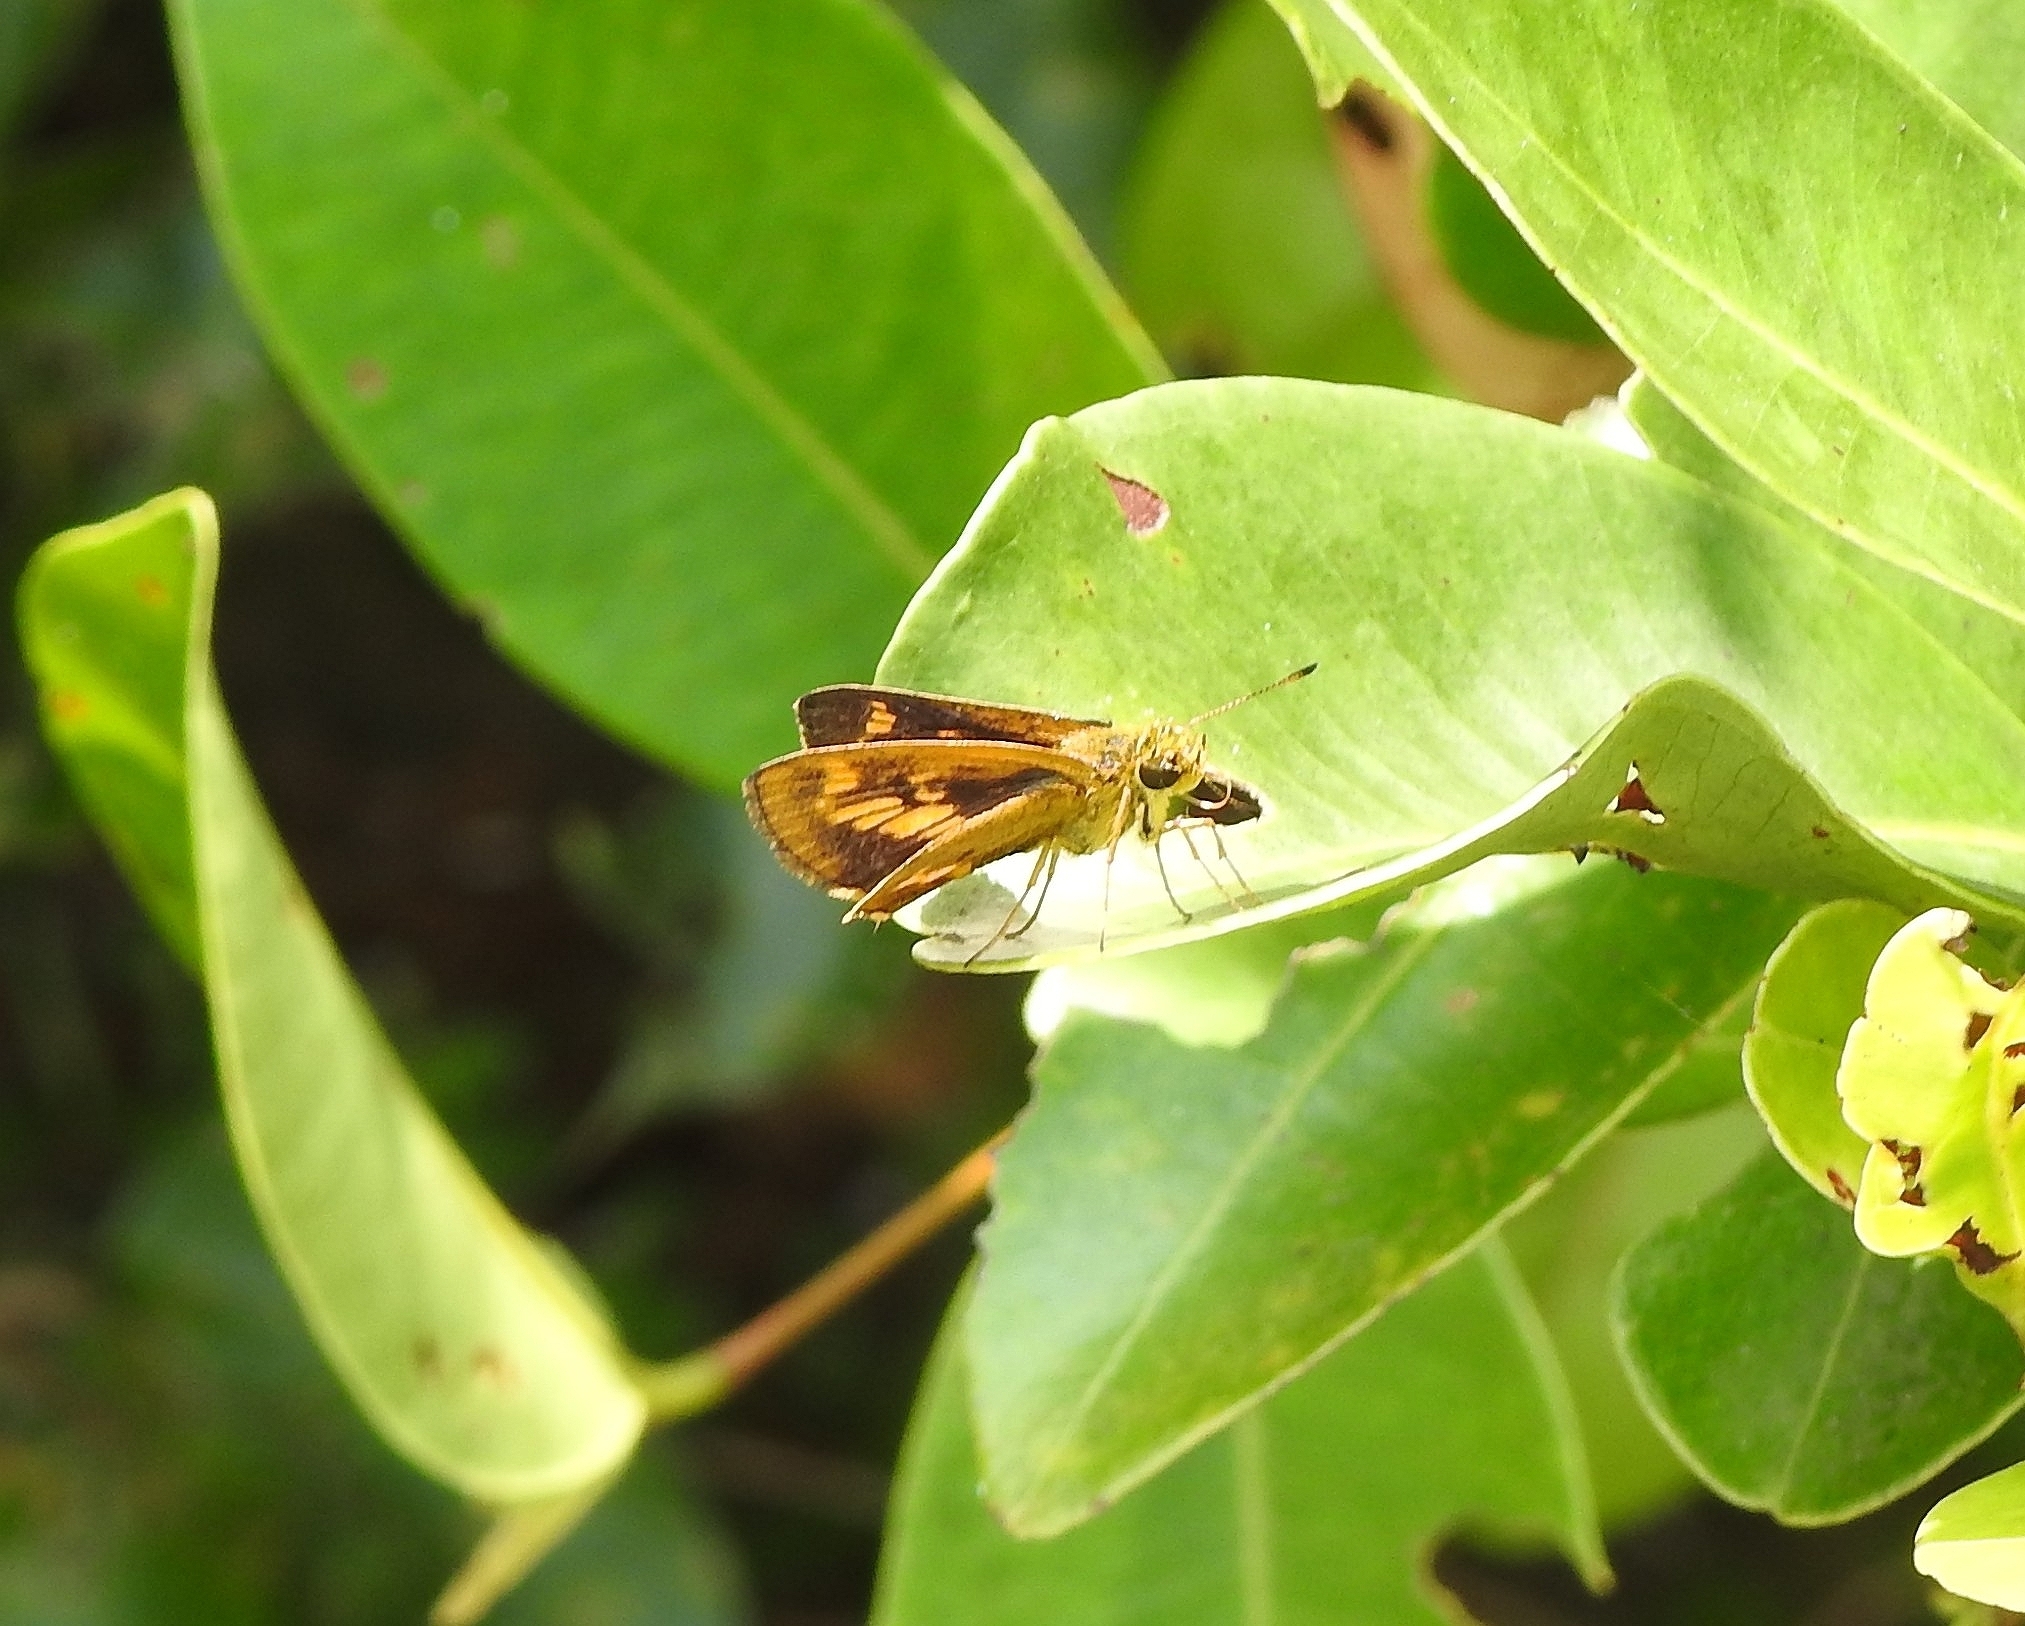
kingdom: Animalia
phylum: Arthropoda
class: Insecta
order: Lepidoptera
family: Hesperiidae
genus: Oriens
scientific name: Oriens goloides
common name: Smaller dartlet
